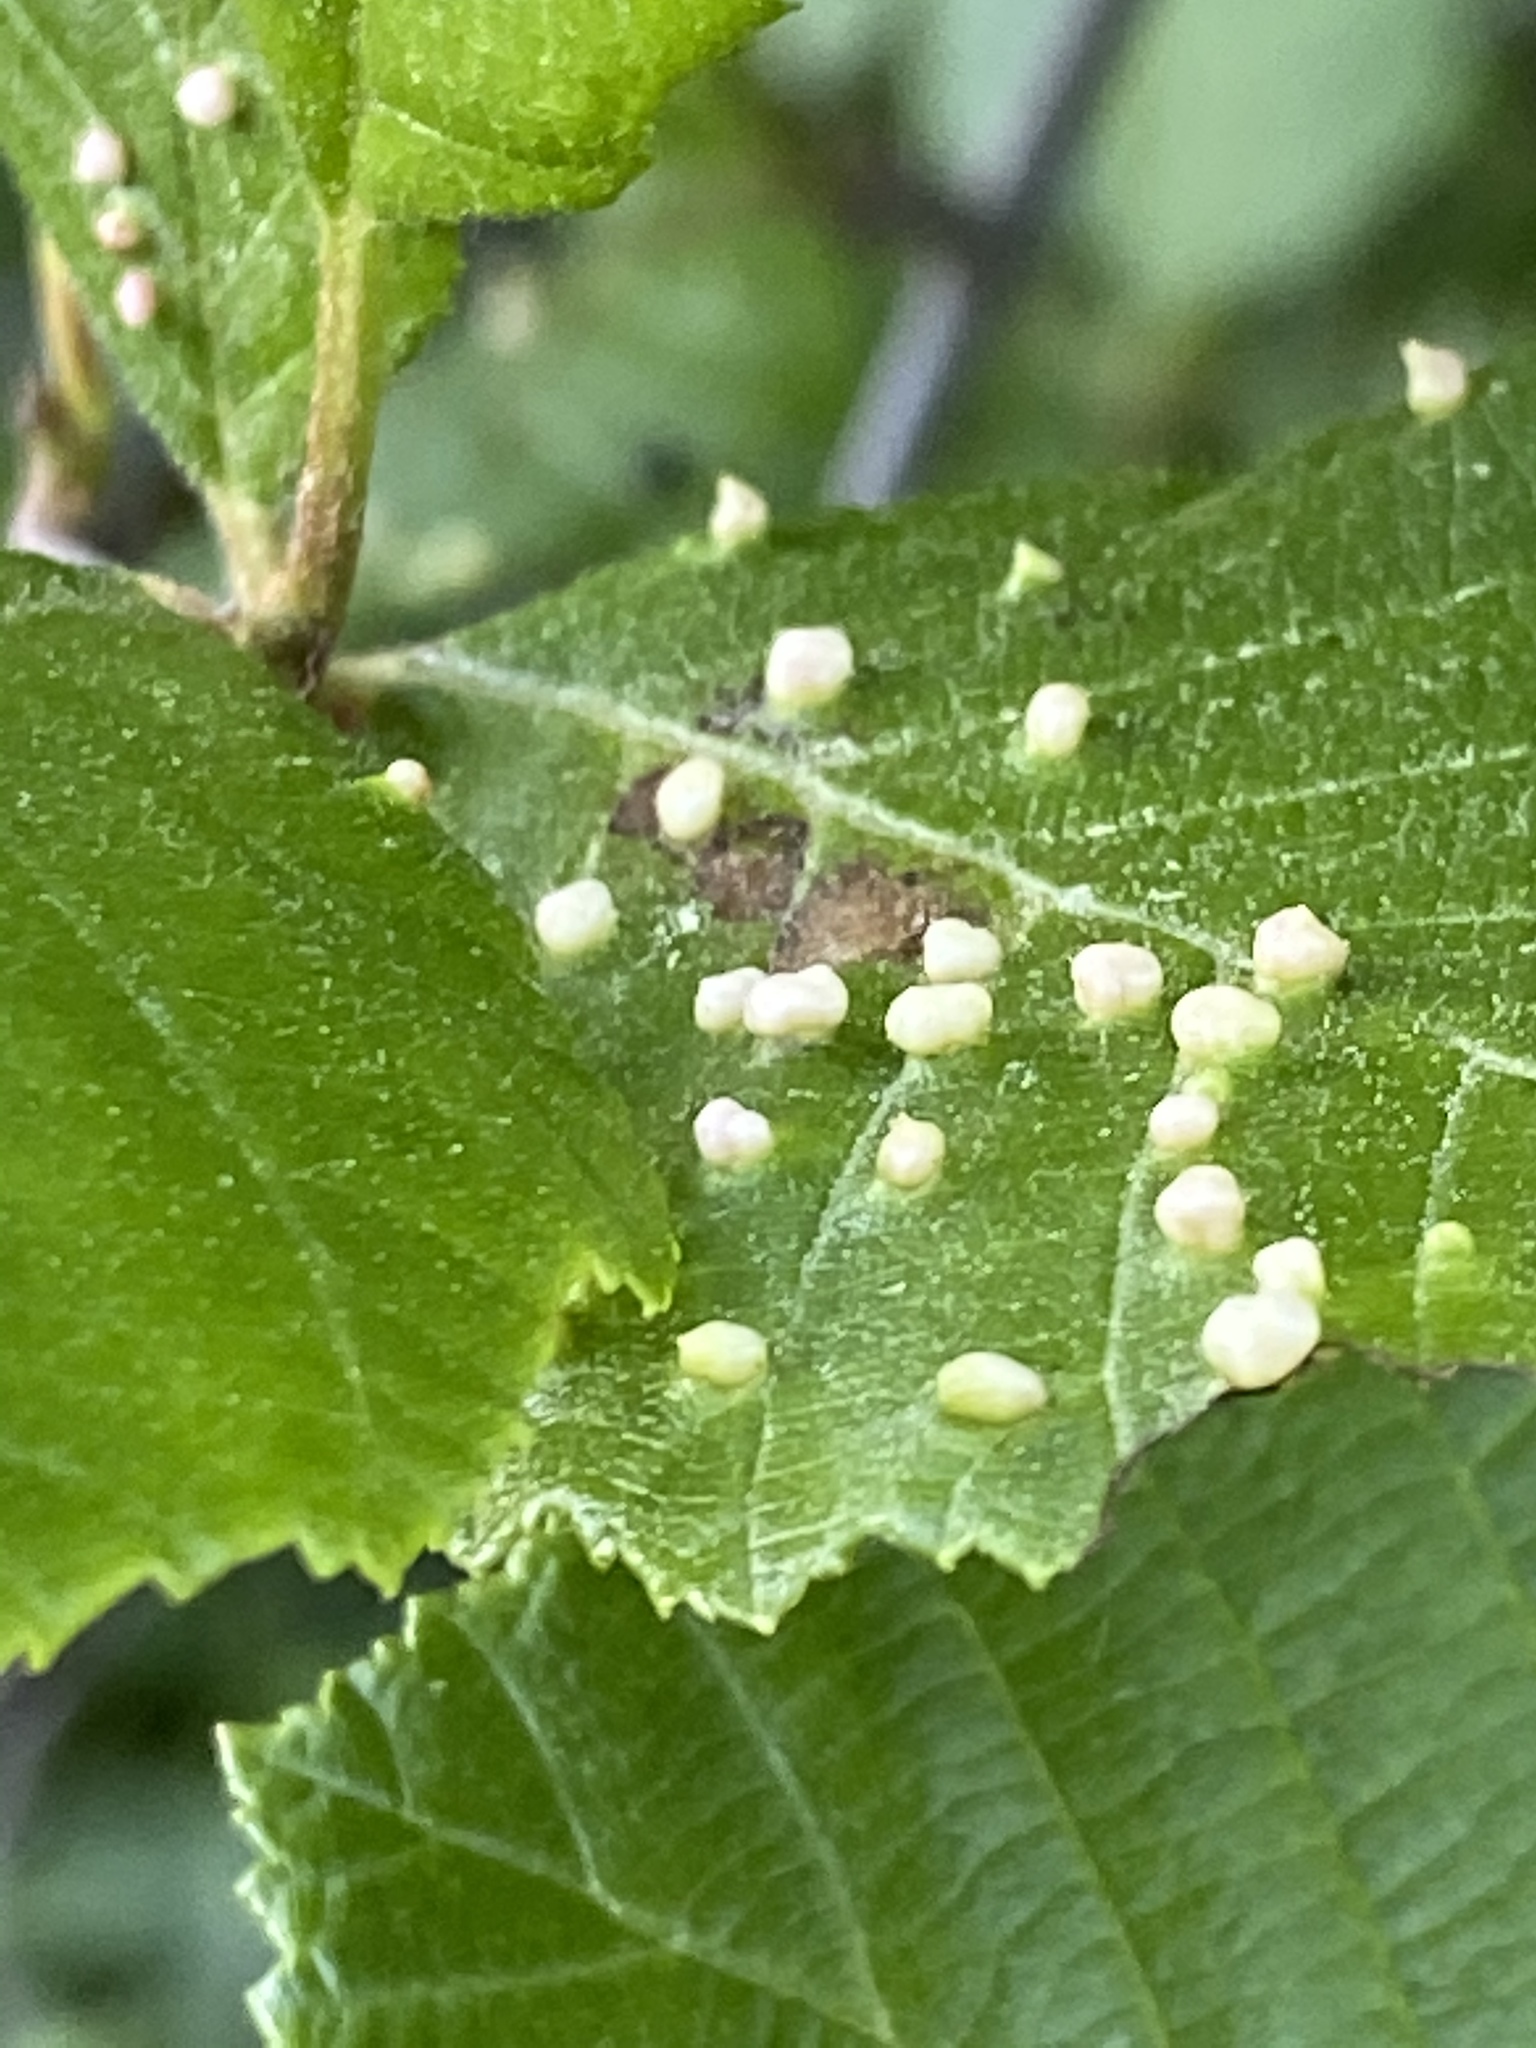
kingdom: Animalia
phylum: Arthropoda
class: Arachnida
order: Trombidiformes
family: Eriophyidae
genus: Eriophyes
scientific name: Eriophyes laevis
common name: Alder leaf gall mite
